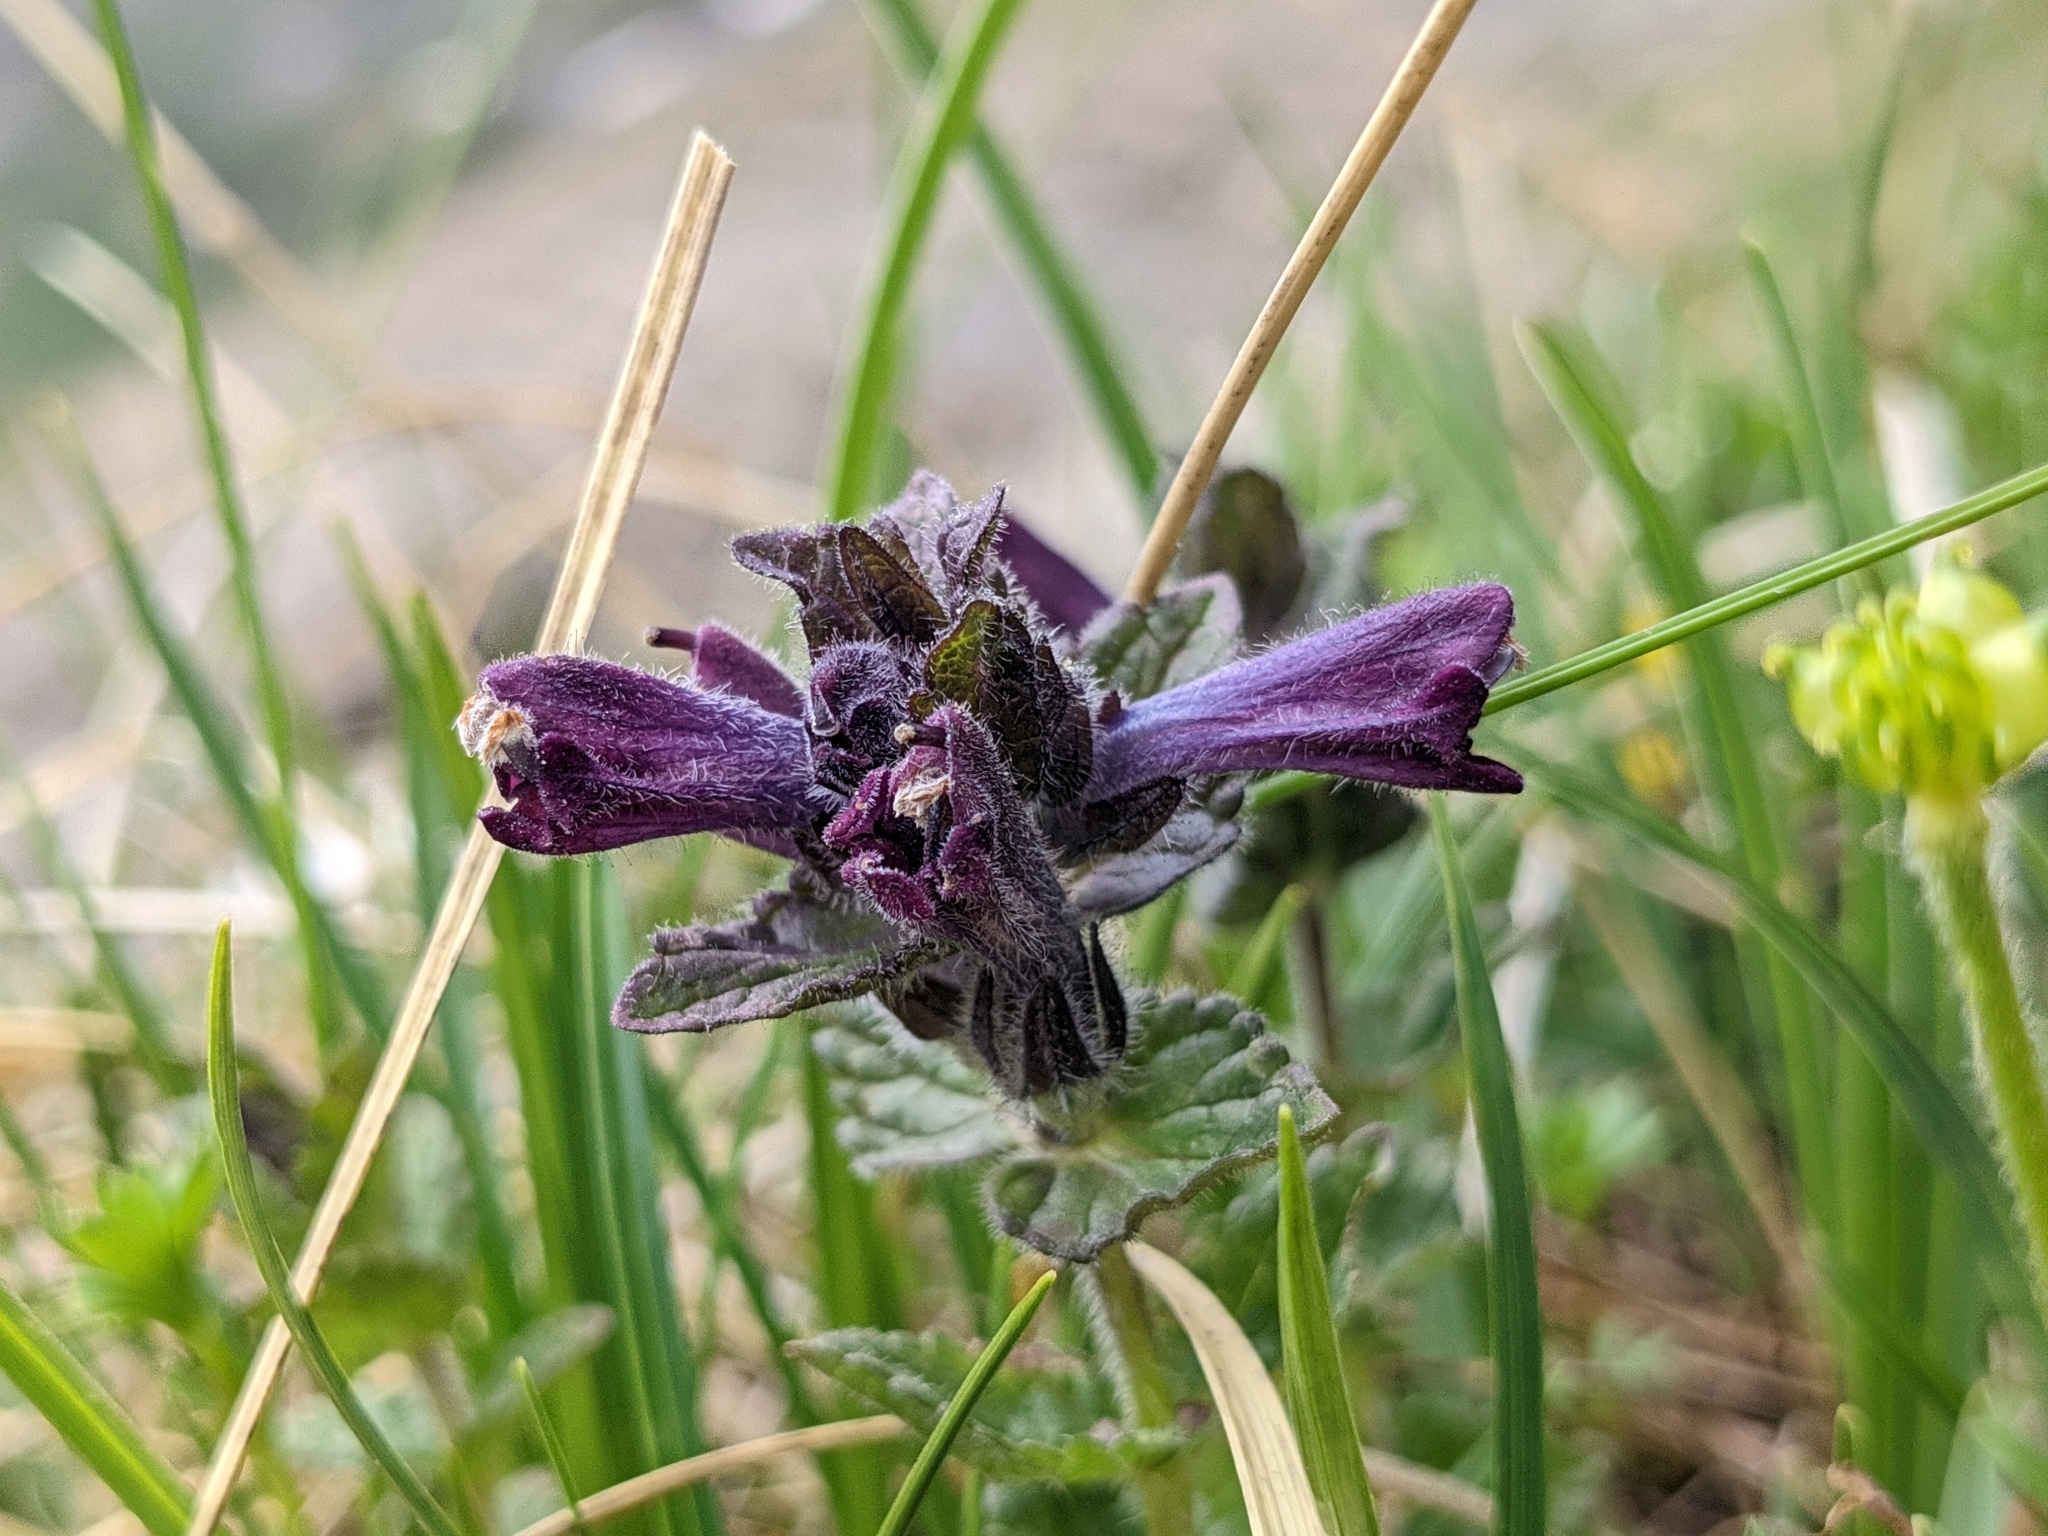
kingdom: Plantae
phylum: Tracheophyta
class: Magnoliopsida
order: Lamiales
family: Orobanchaceae
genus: Bartsia
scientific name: Bartsia alpina
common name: Alpine bartsia
